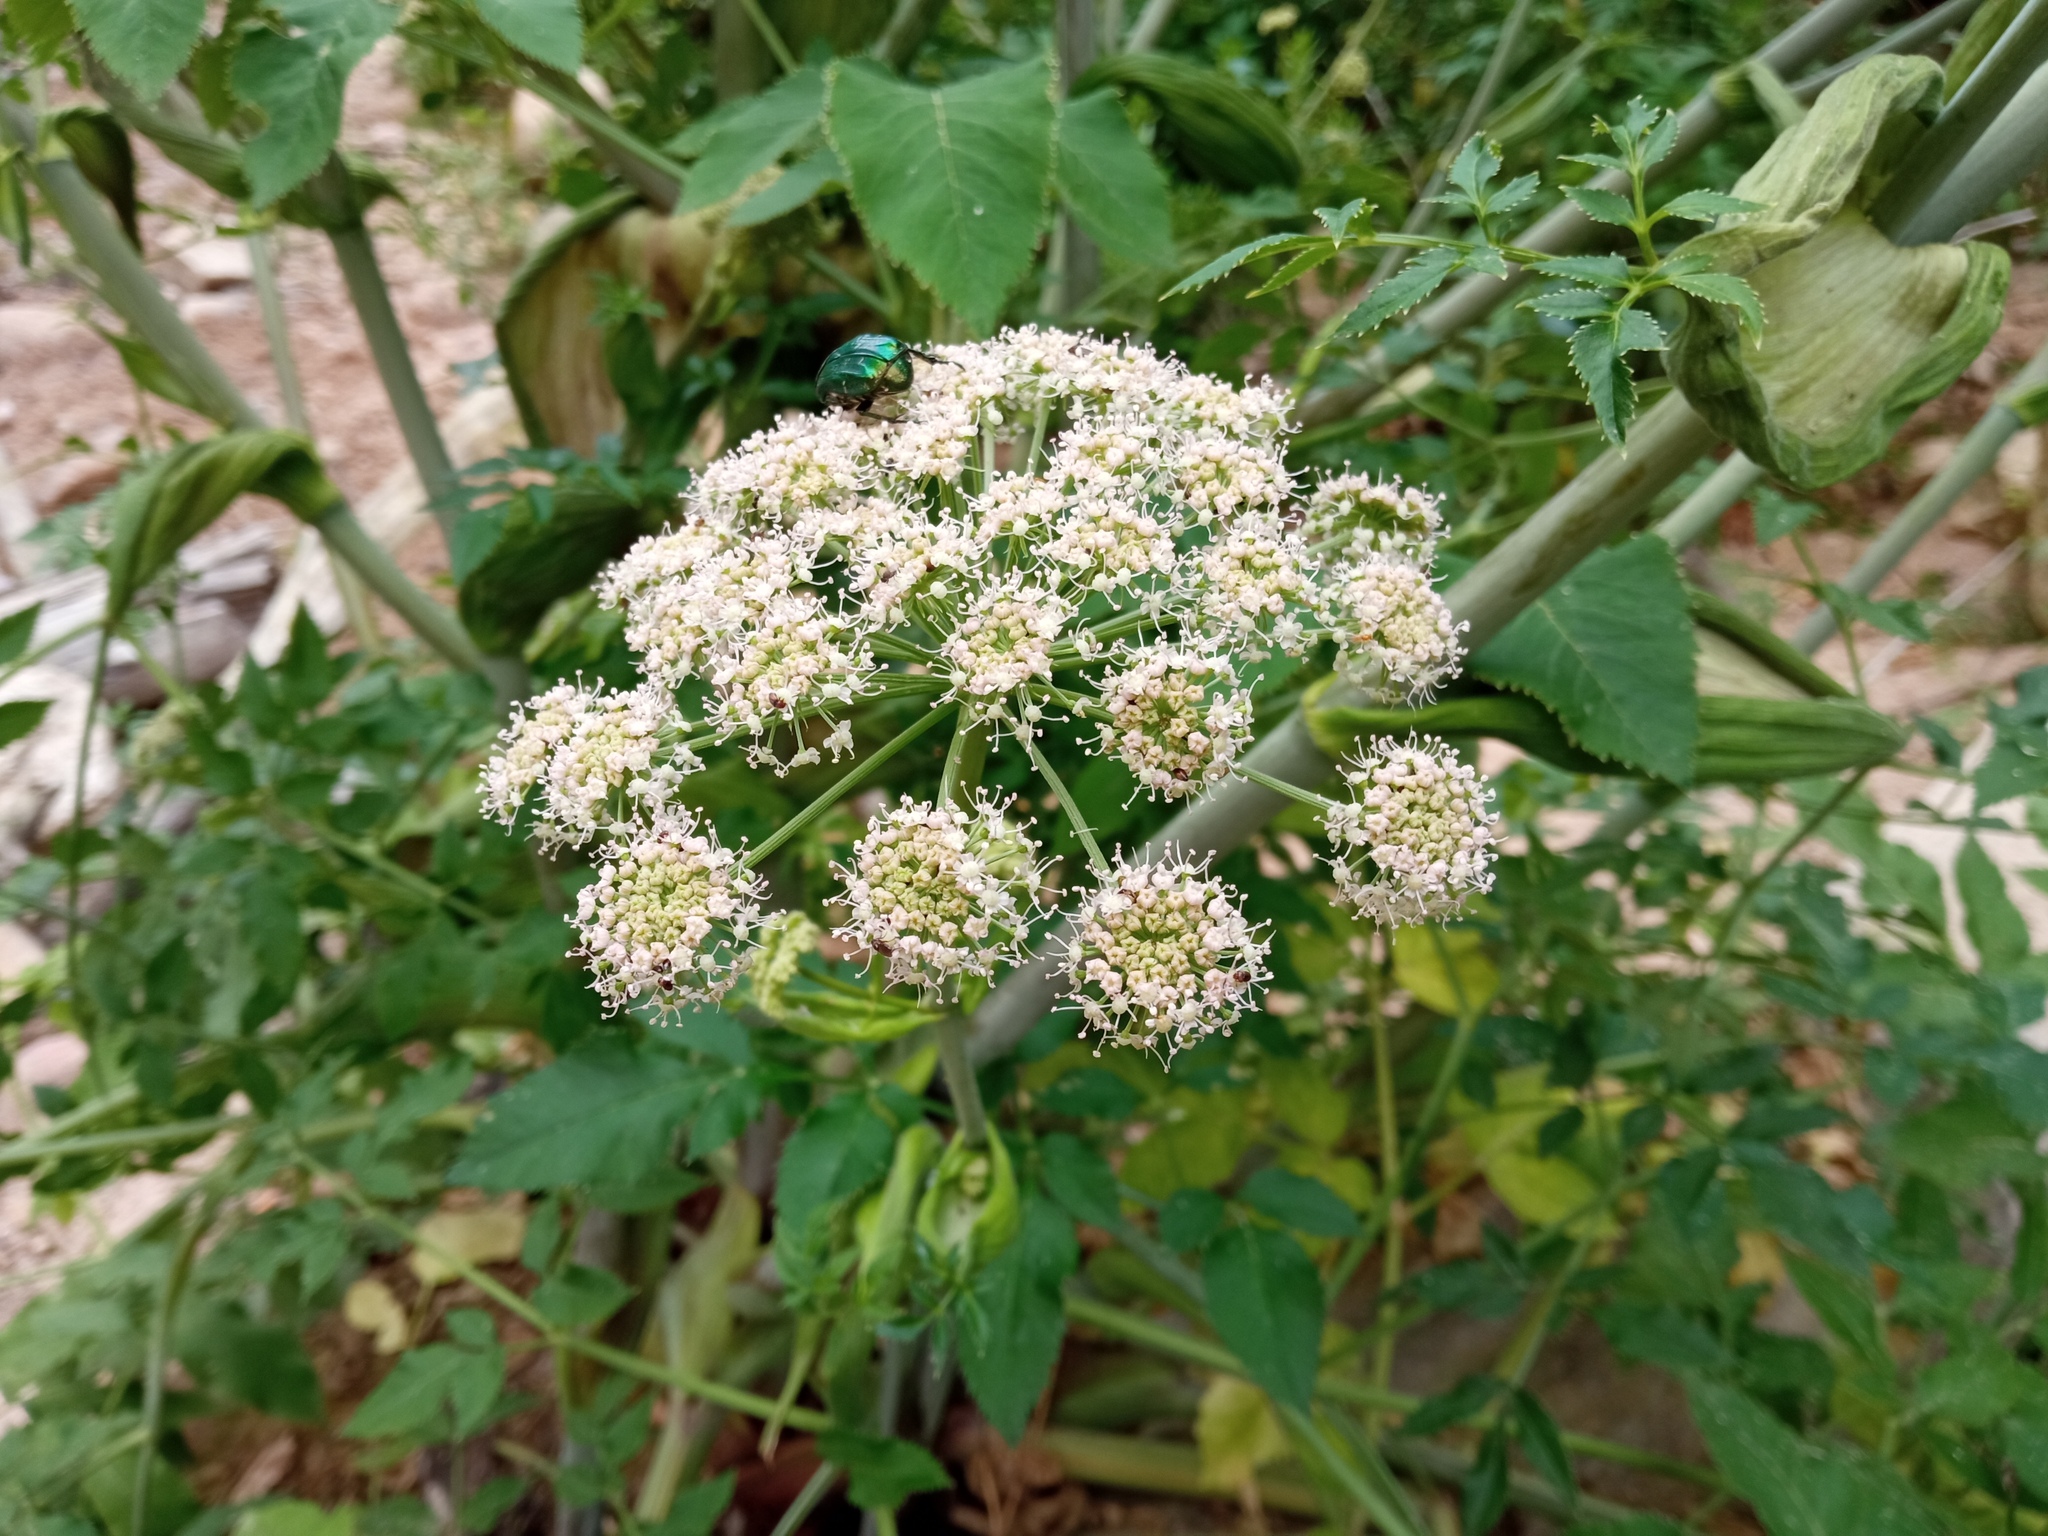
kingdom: Plantae
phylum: Tracheophyta
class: Magnoliopsida
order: Apiales
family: Apiaceae
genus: Angelica
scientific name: Angelica sylvestris
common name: Wild angelica
